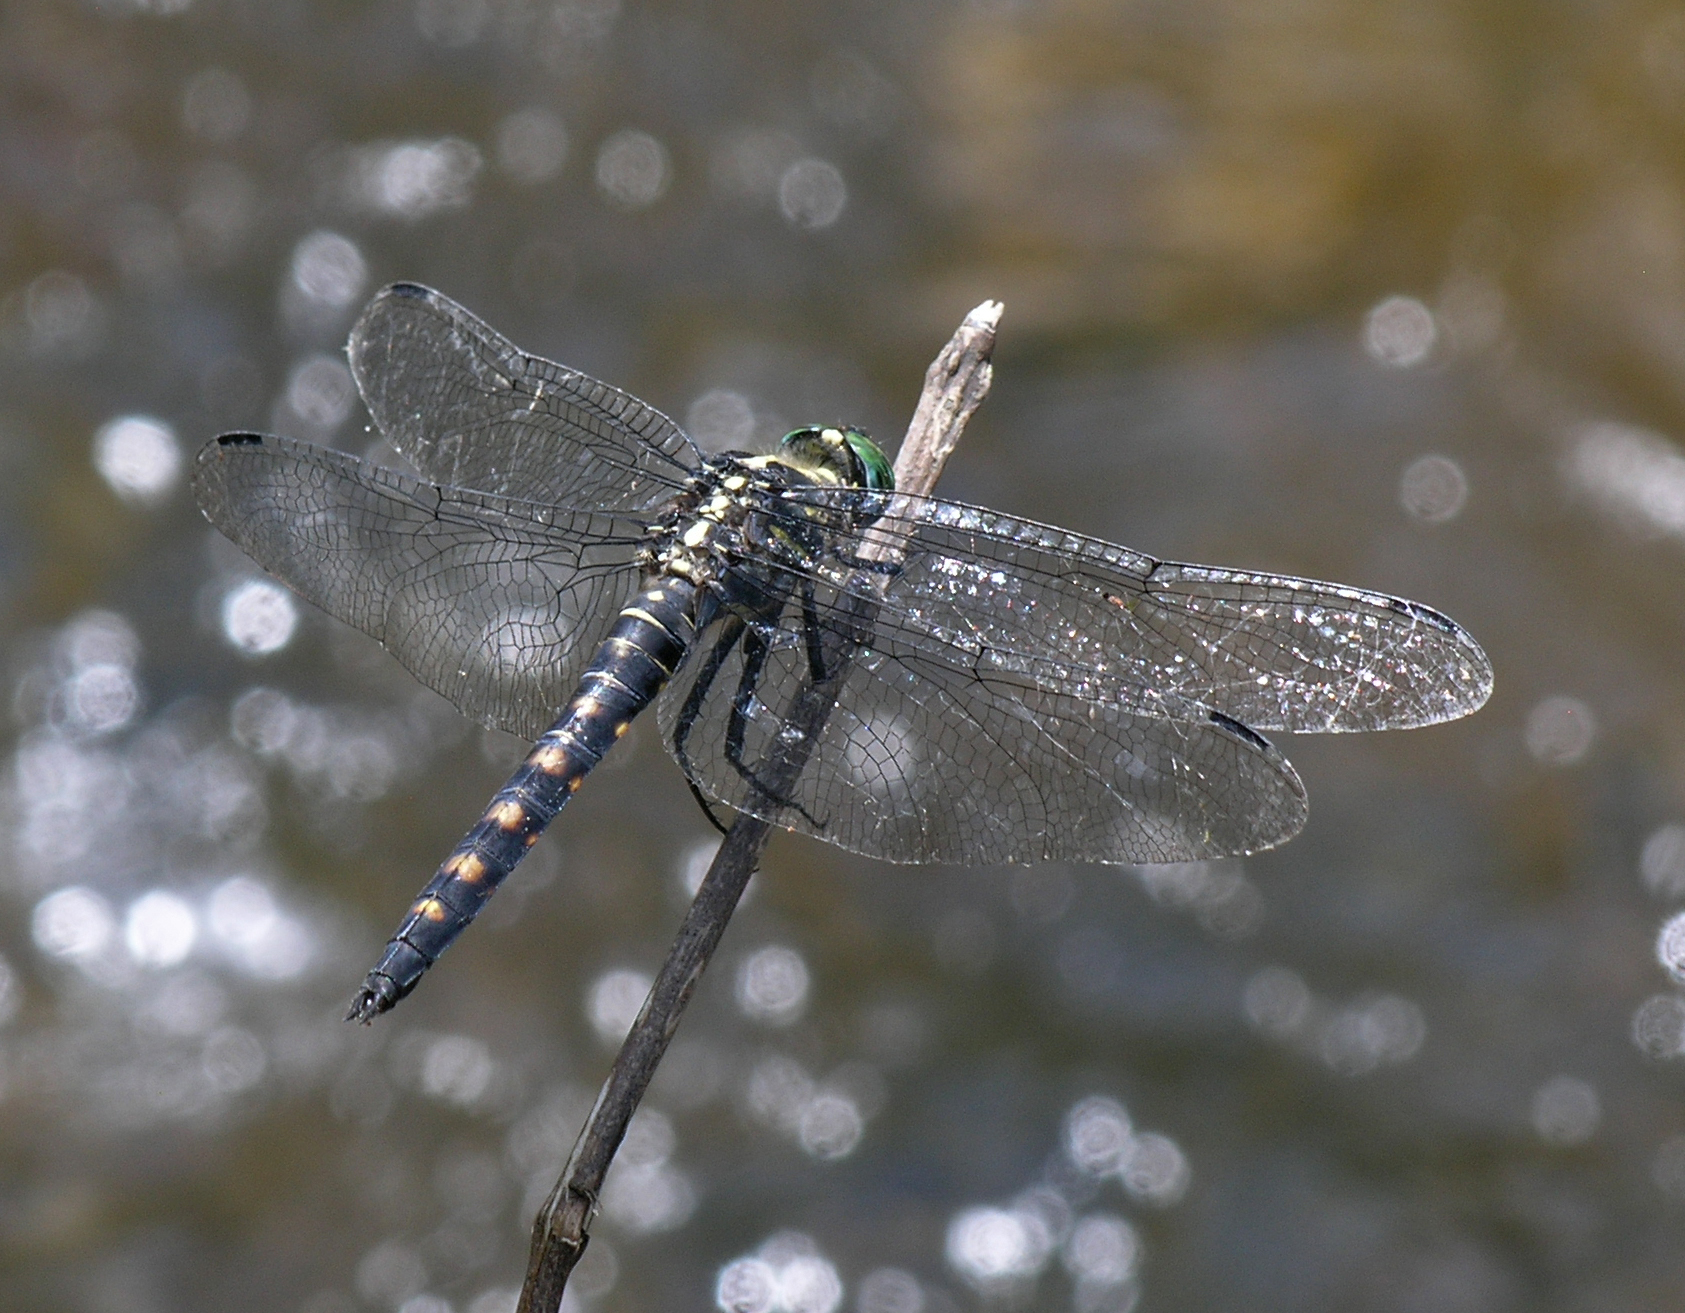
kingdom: Animalia
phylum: Arthropoda
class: Insecta
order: Odonata
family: Libellulidae
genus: Onychothemis
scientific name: Onychothemis testacea
